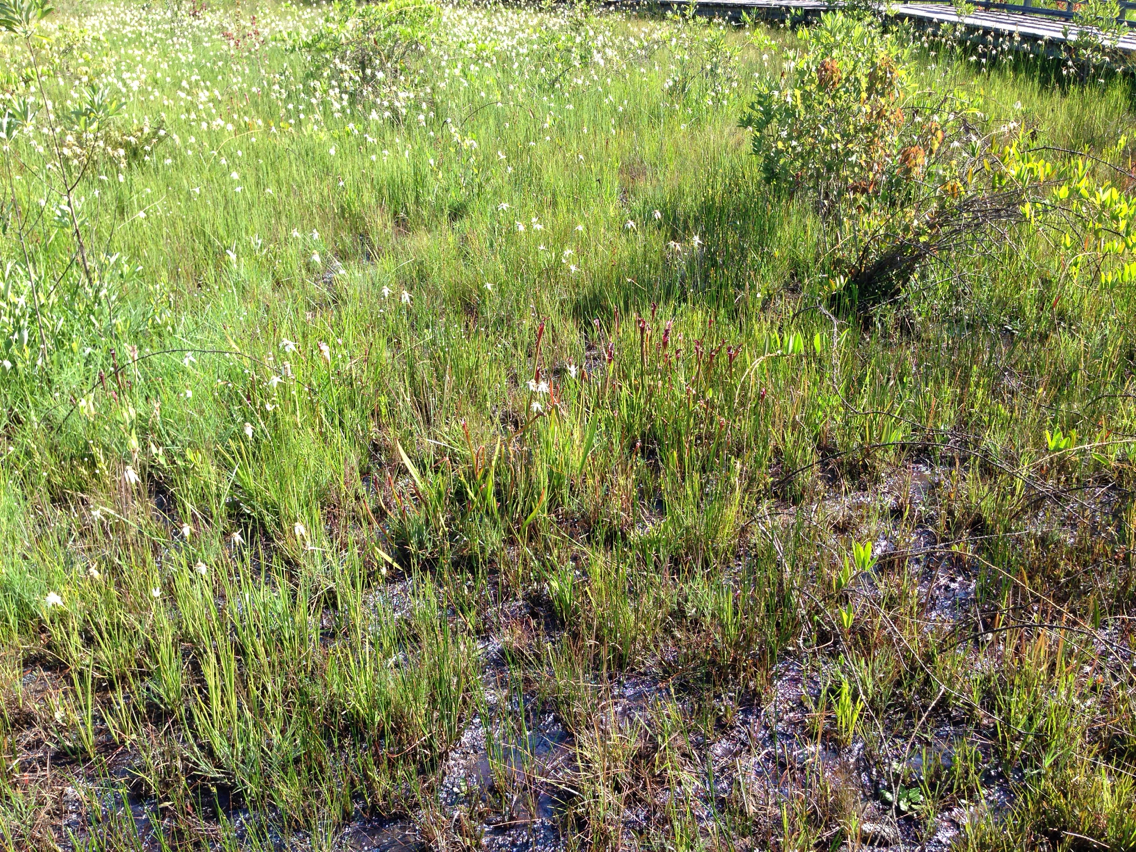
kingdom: Plantae
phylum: Tracheophyta
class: Magnoliopsida
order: Ericales
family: Sarraceniaceae
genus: Sarracenia
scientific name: Sarracenia leucophylla
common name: Purple trumpetleaf
